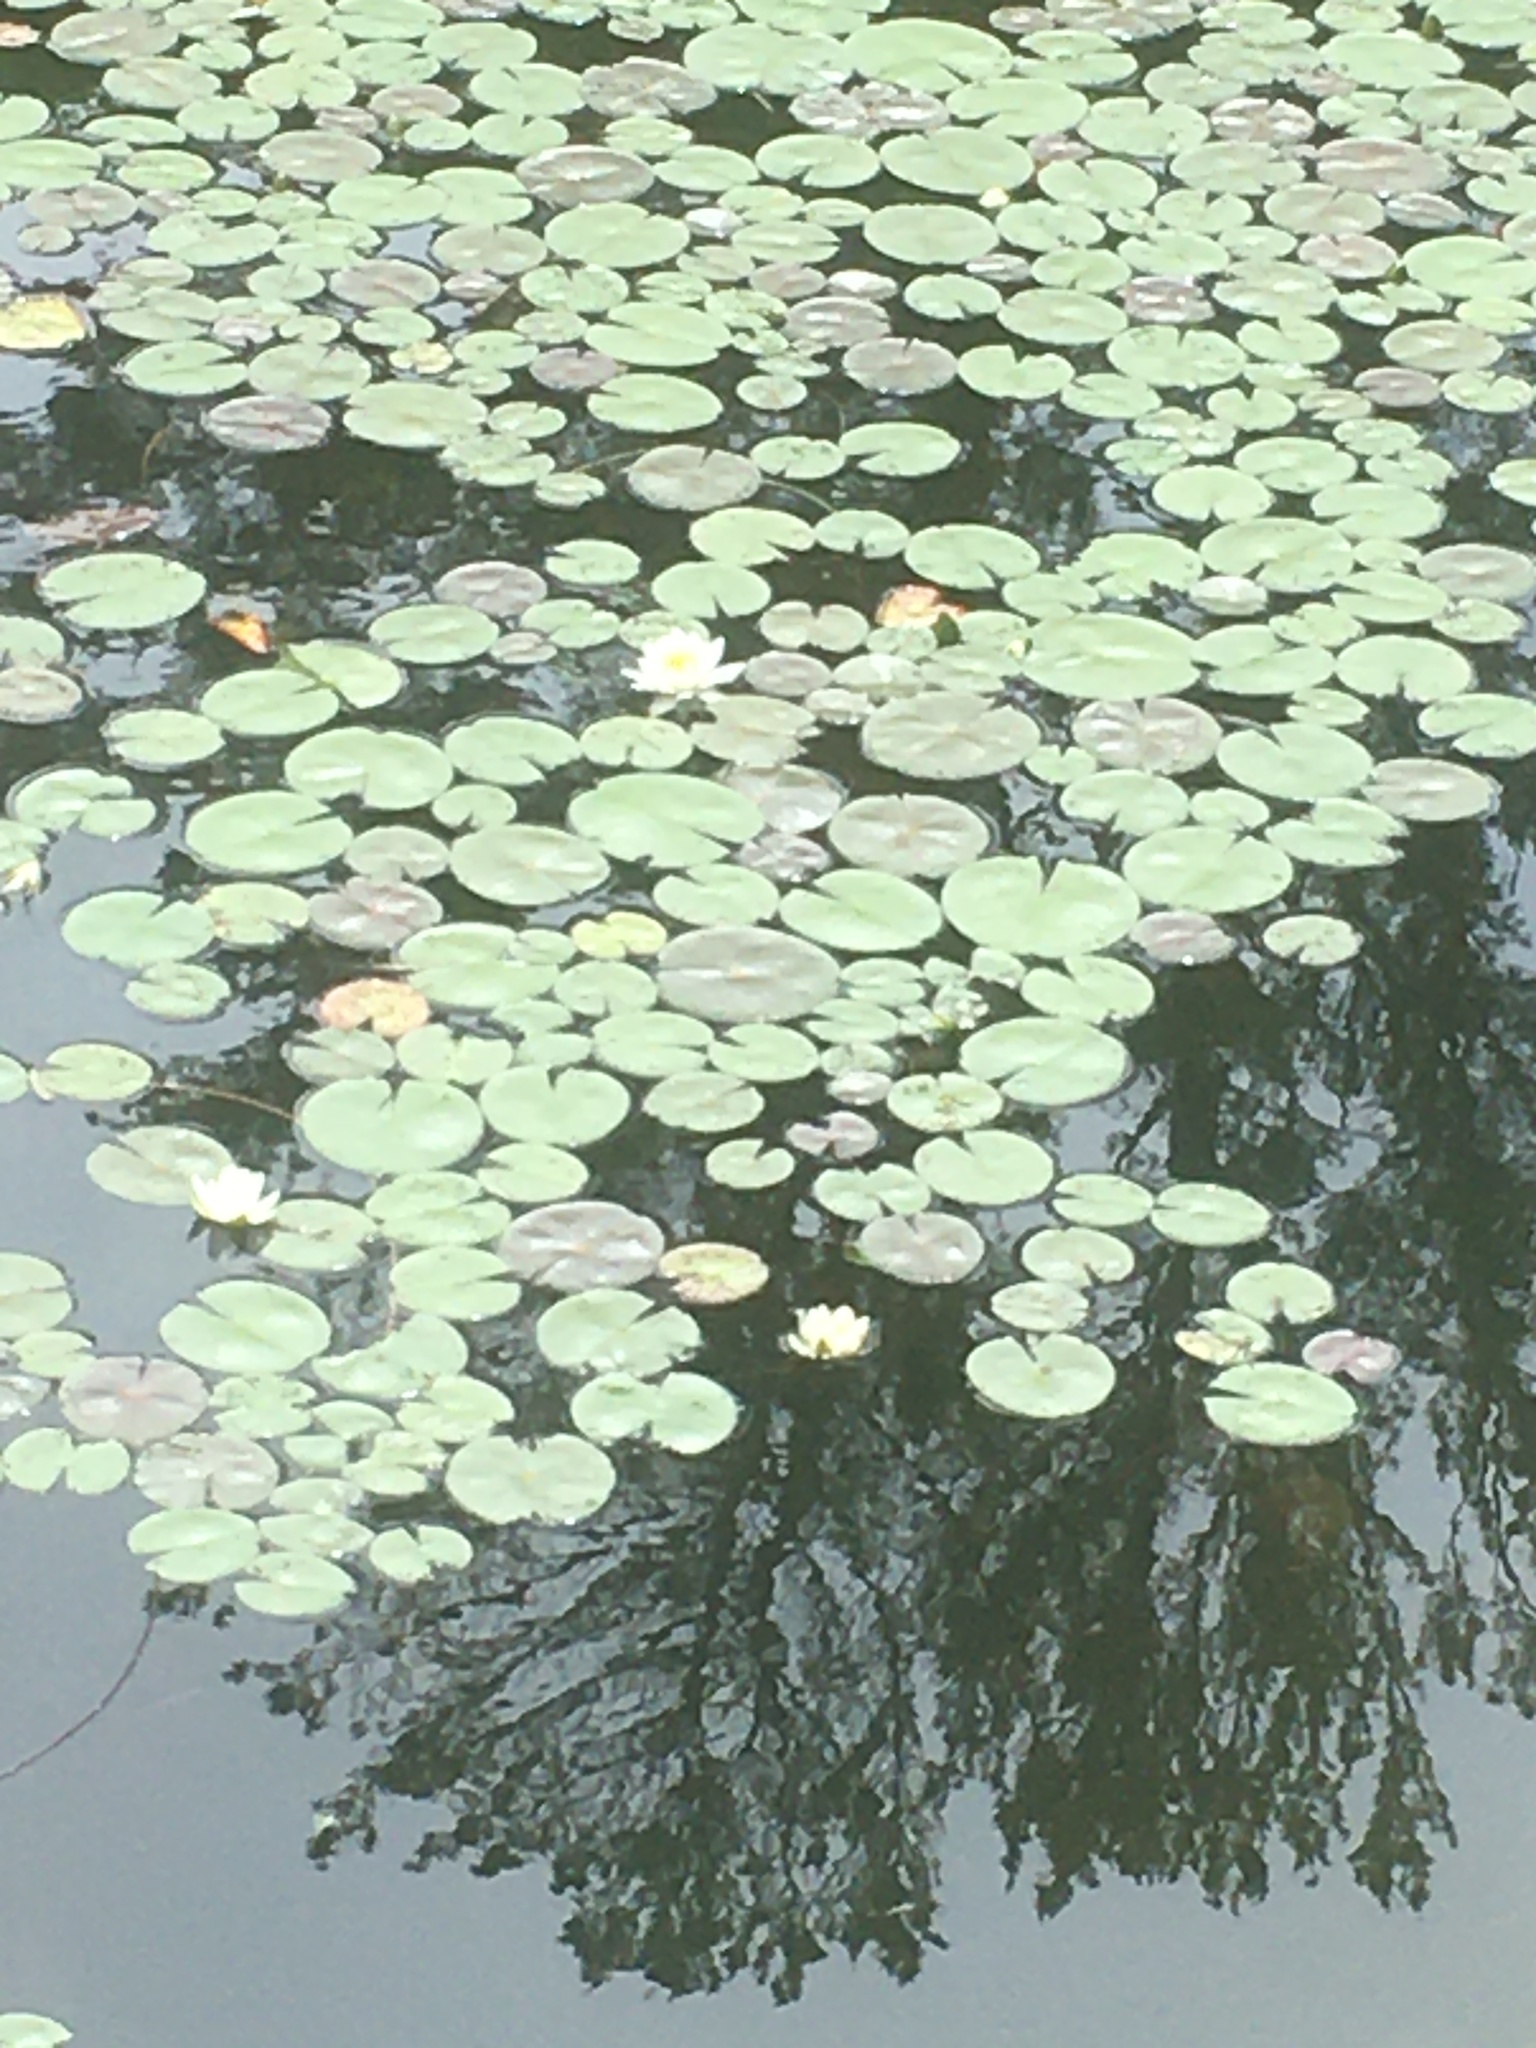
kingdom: Plantae
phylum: Tracheophyta
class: Magnoliopsida
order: Nymphaeales
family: Nymphaeaceae
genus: Nymphaea
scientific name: Nymphaea odorata
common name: Fragrant water-lily
